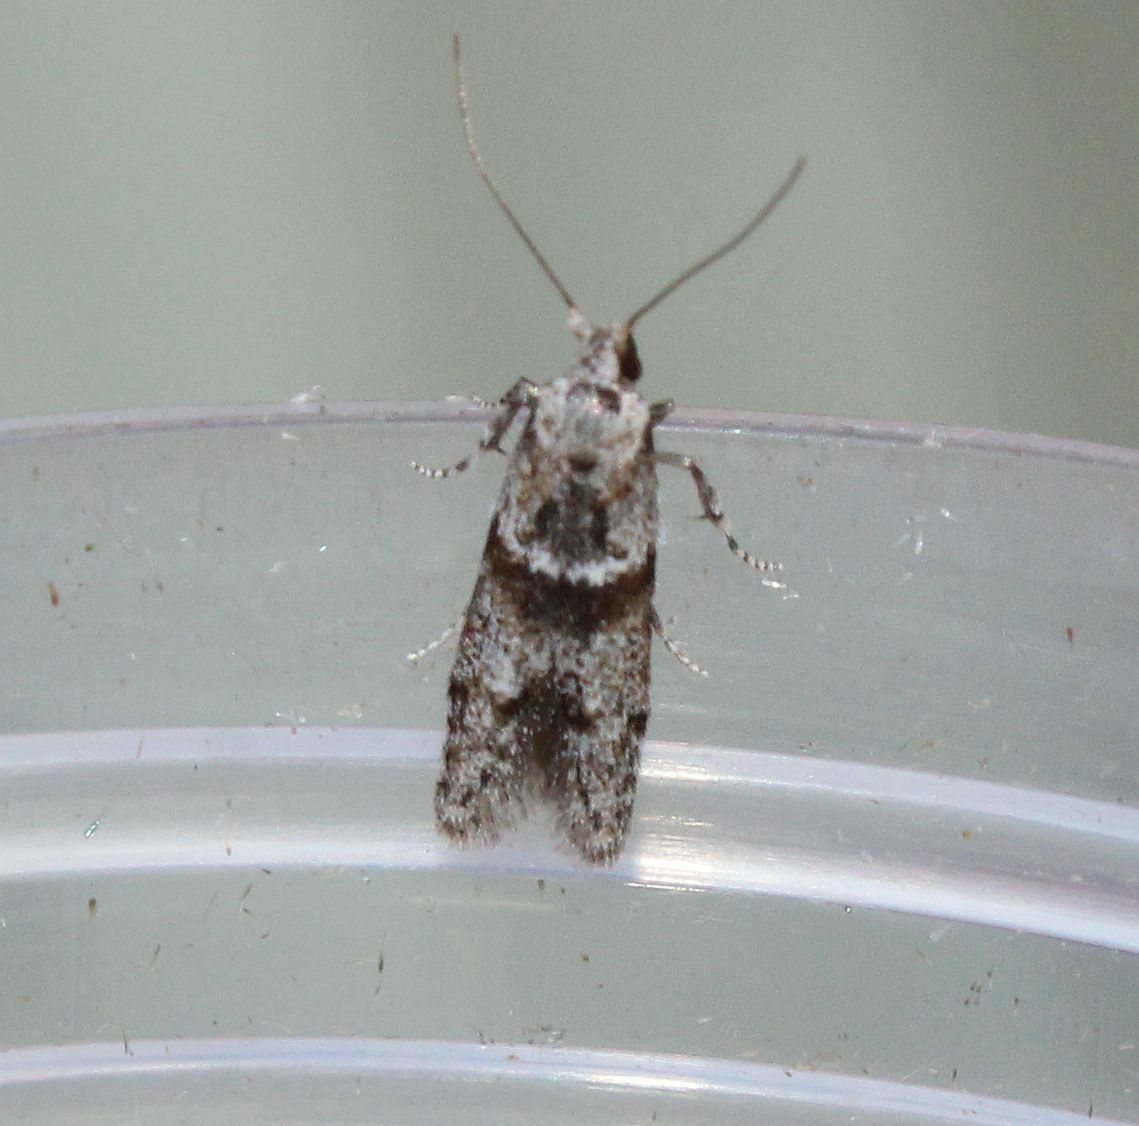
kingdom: Animalia
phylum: Arthropoda
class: Insecta
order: Lepidoptera
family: Blastobasidae
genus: Blastobasis
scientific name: Blastobasis rebeli
